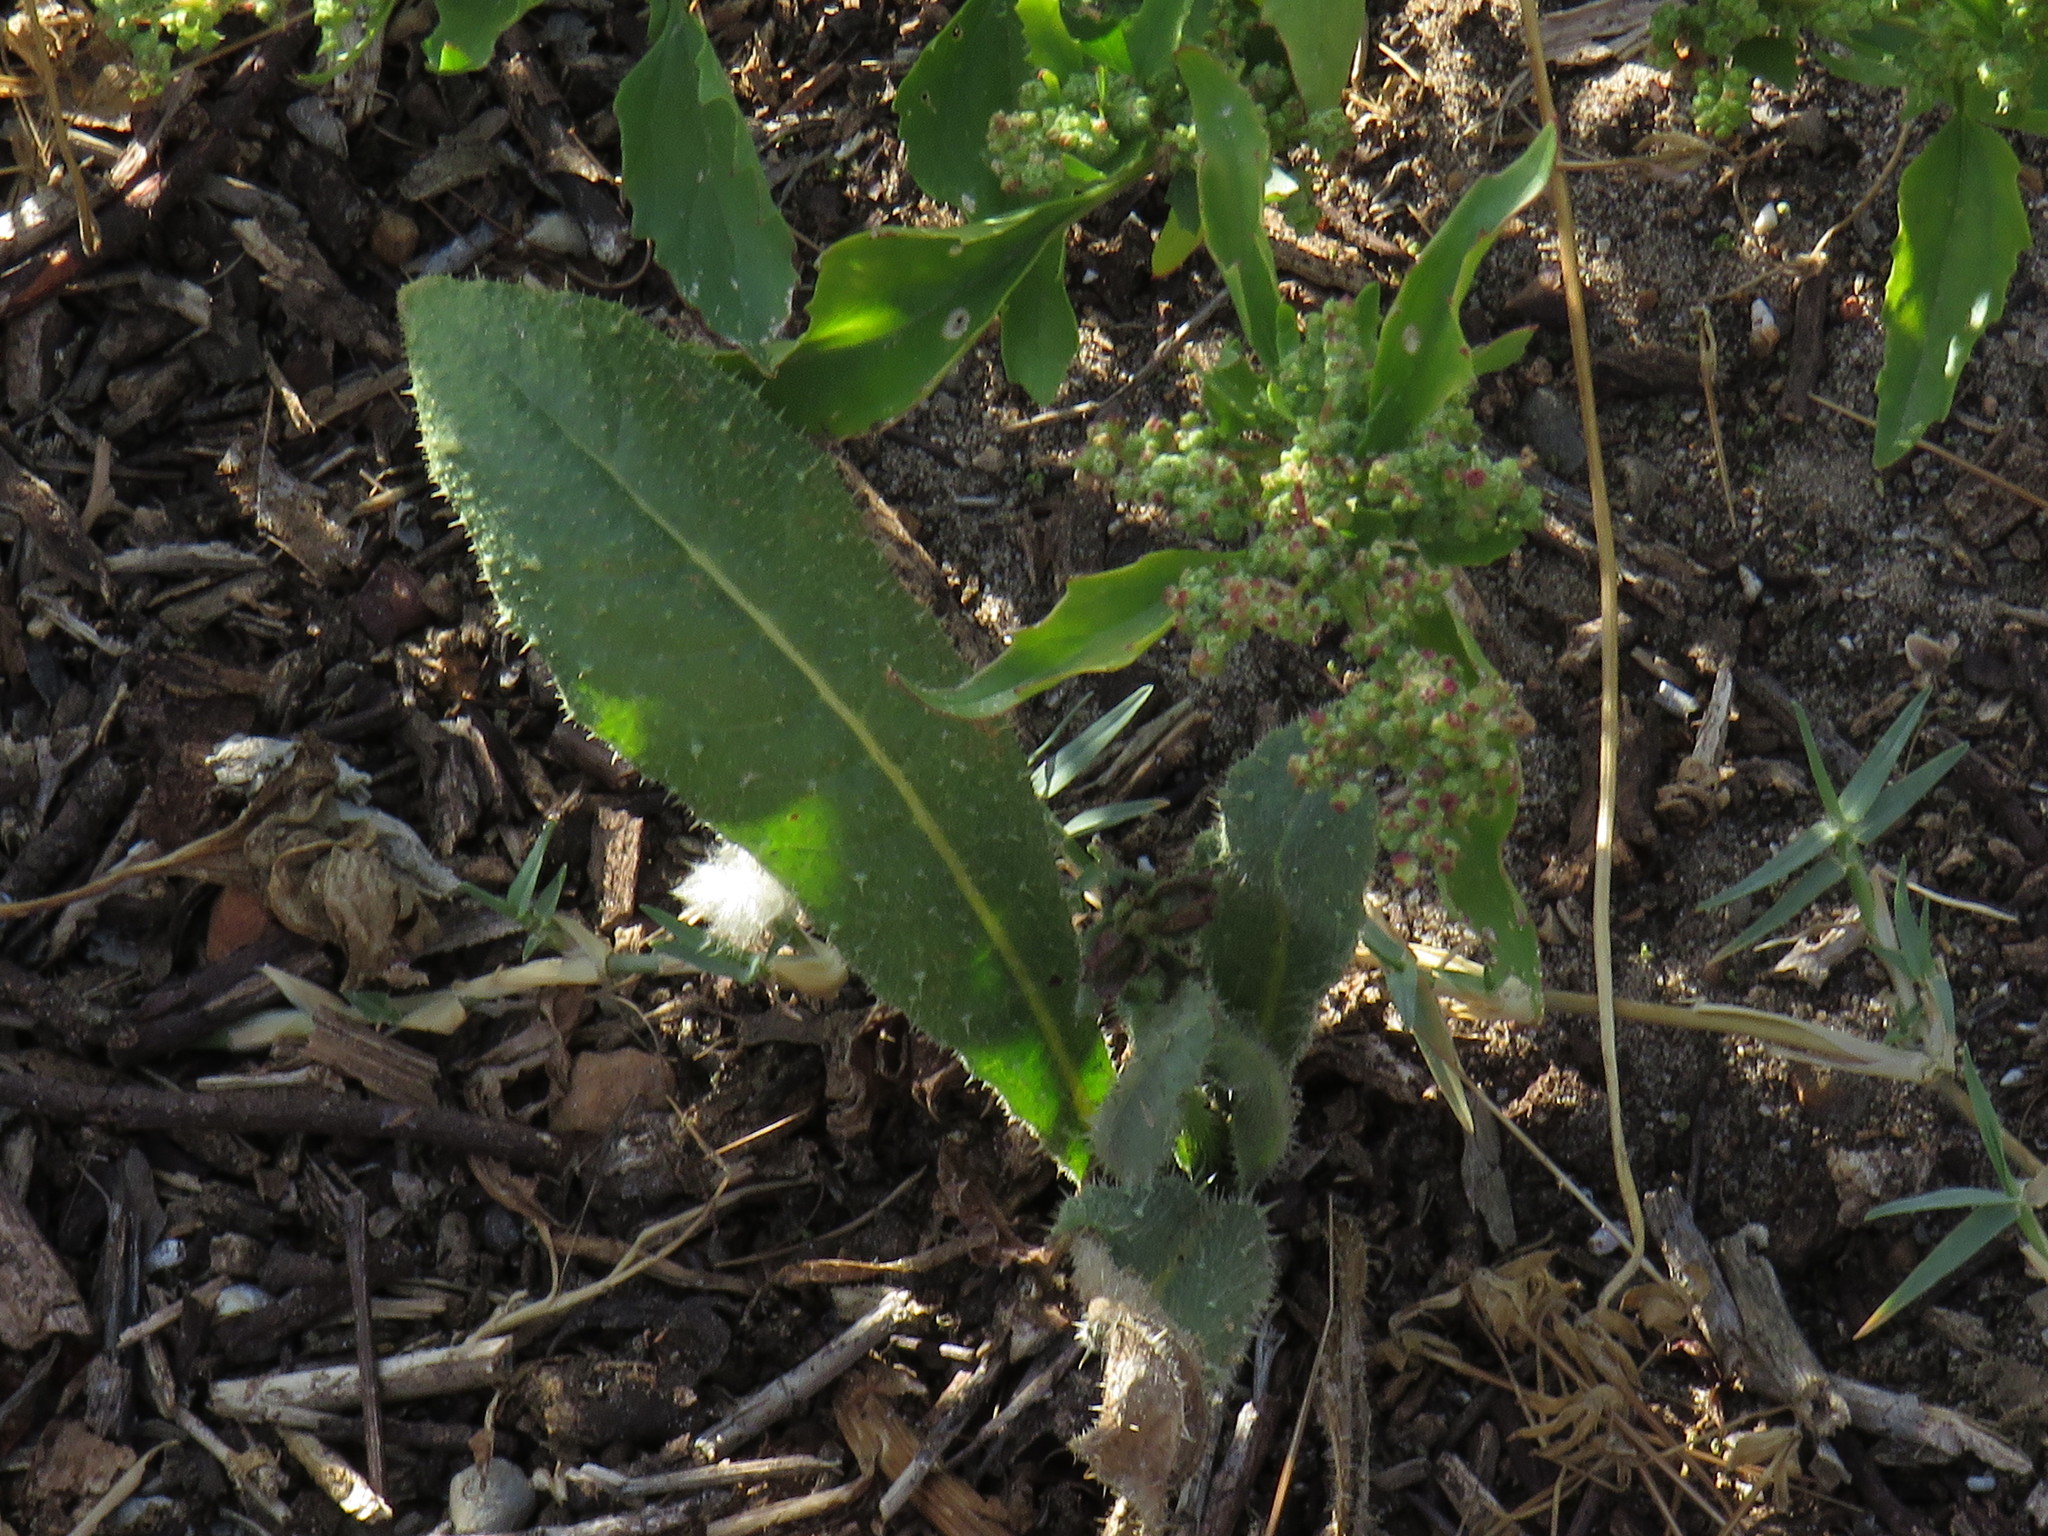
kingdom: Plantae
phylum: Tracheophyta
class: Magnoliopsida
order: Asterales
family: Asteraceae
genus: Helminthotheca
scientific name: Helminthotheca echioides
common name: Ox-tongue
